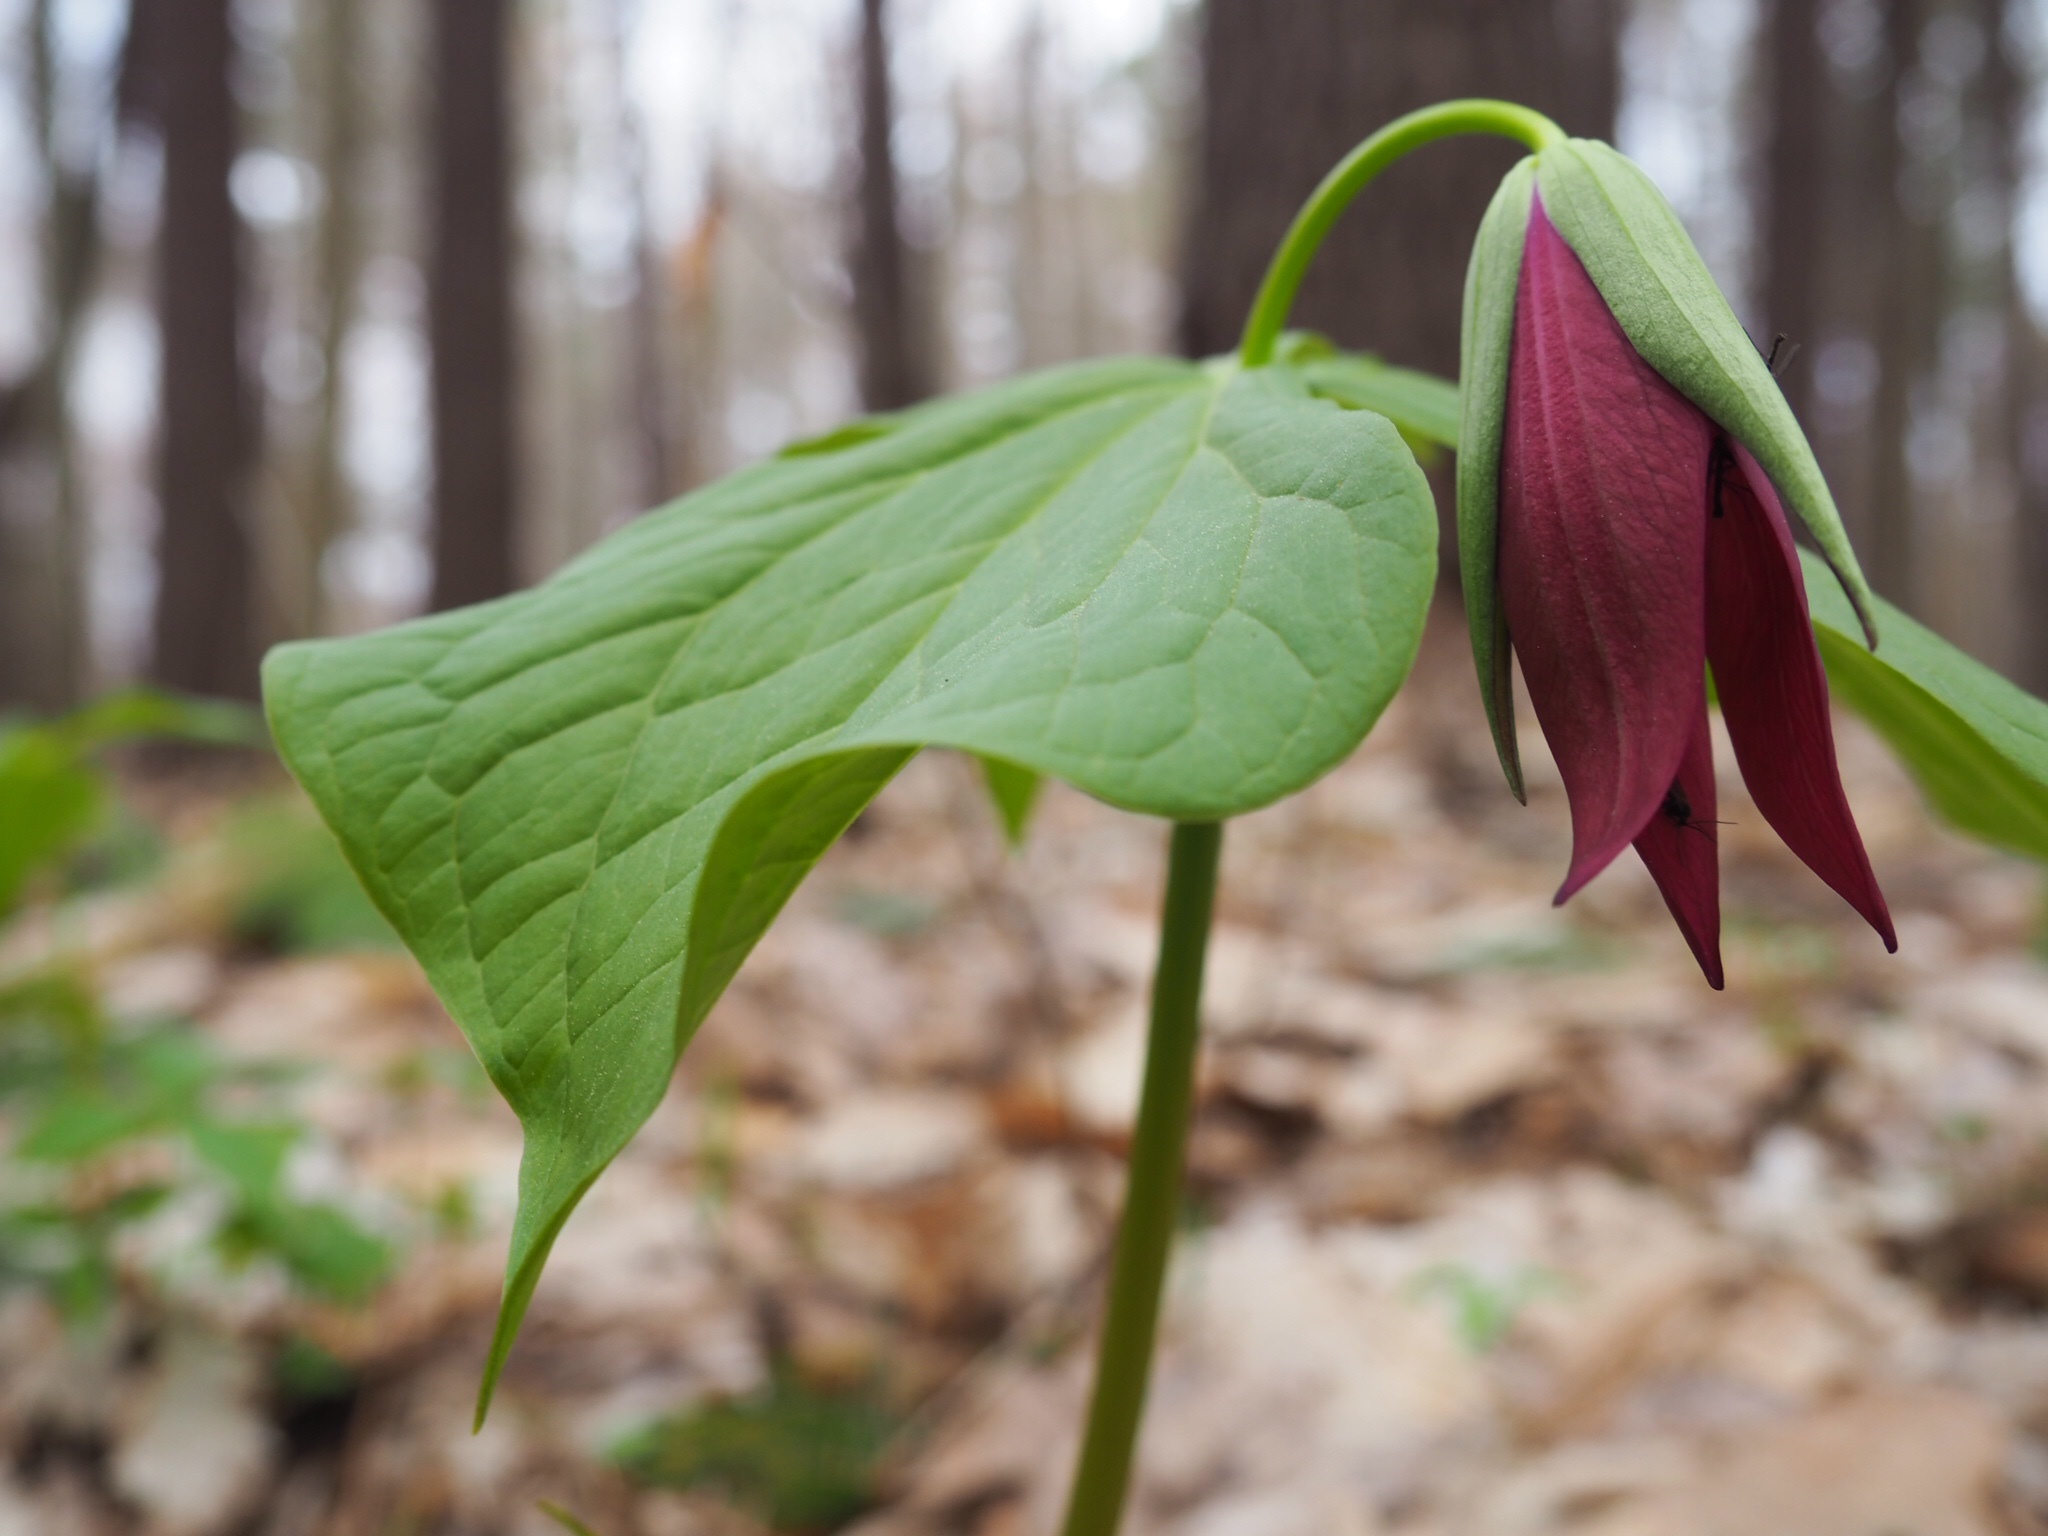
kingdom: Plantae
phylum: Tracheophyta
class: Liliopsida
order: Liliales
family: Melanthiaceae
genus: Trillium
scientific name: Trillium erectum
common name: Purple trillium
